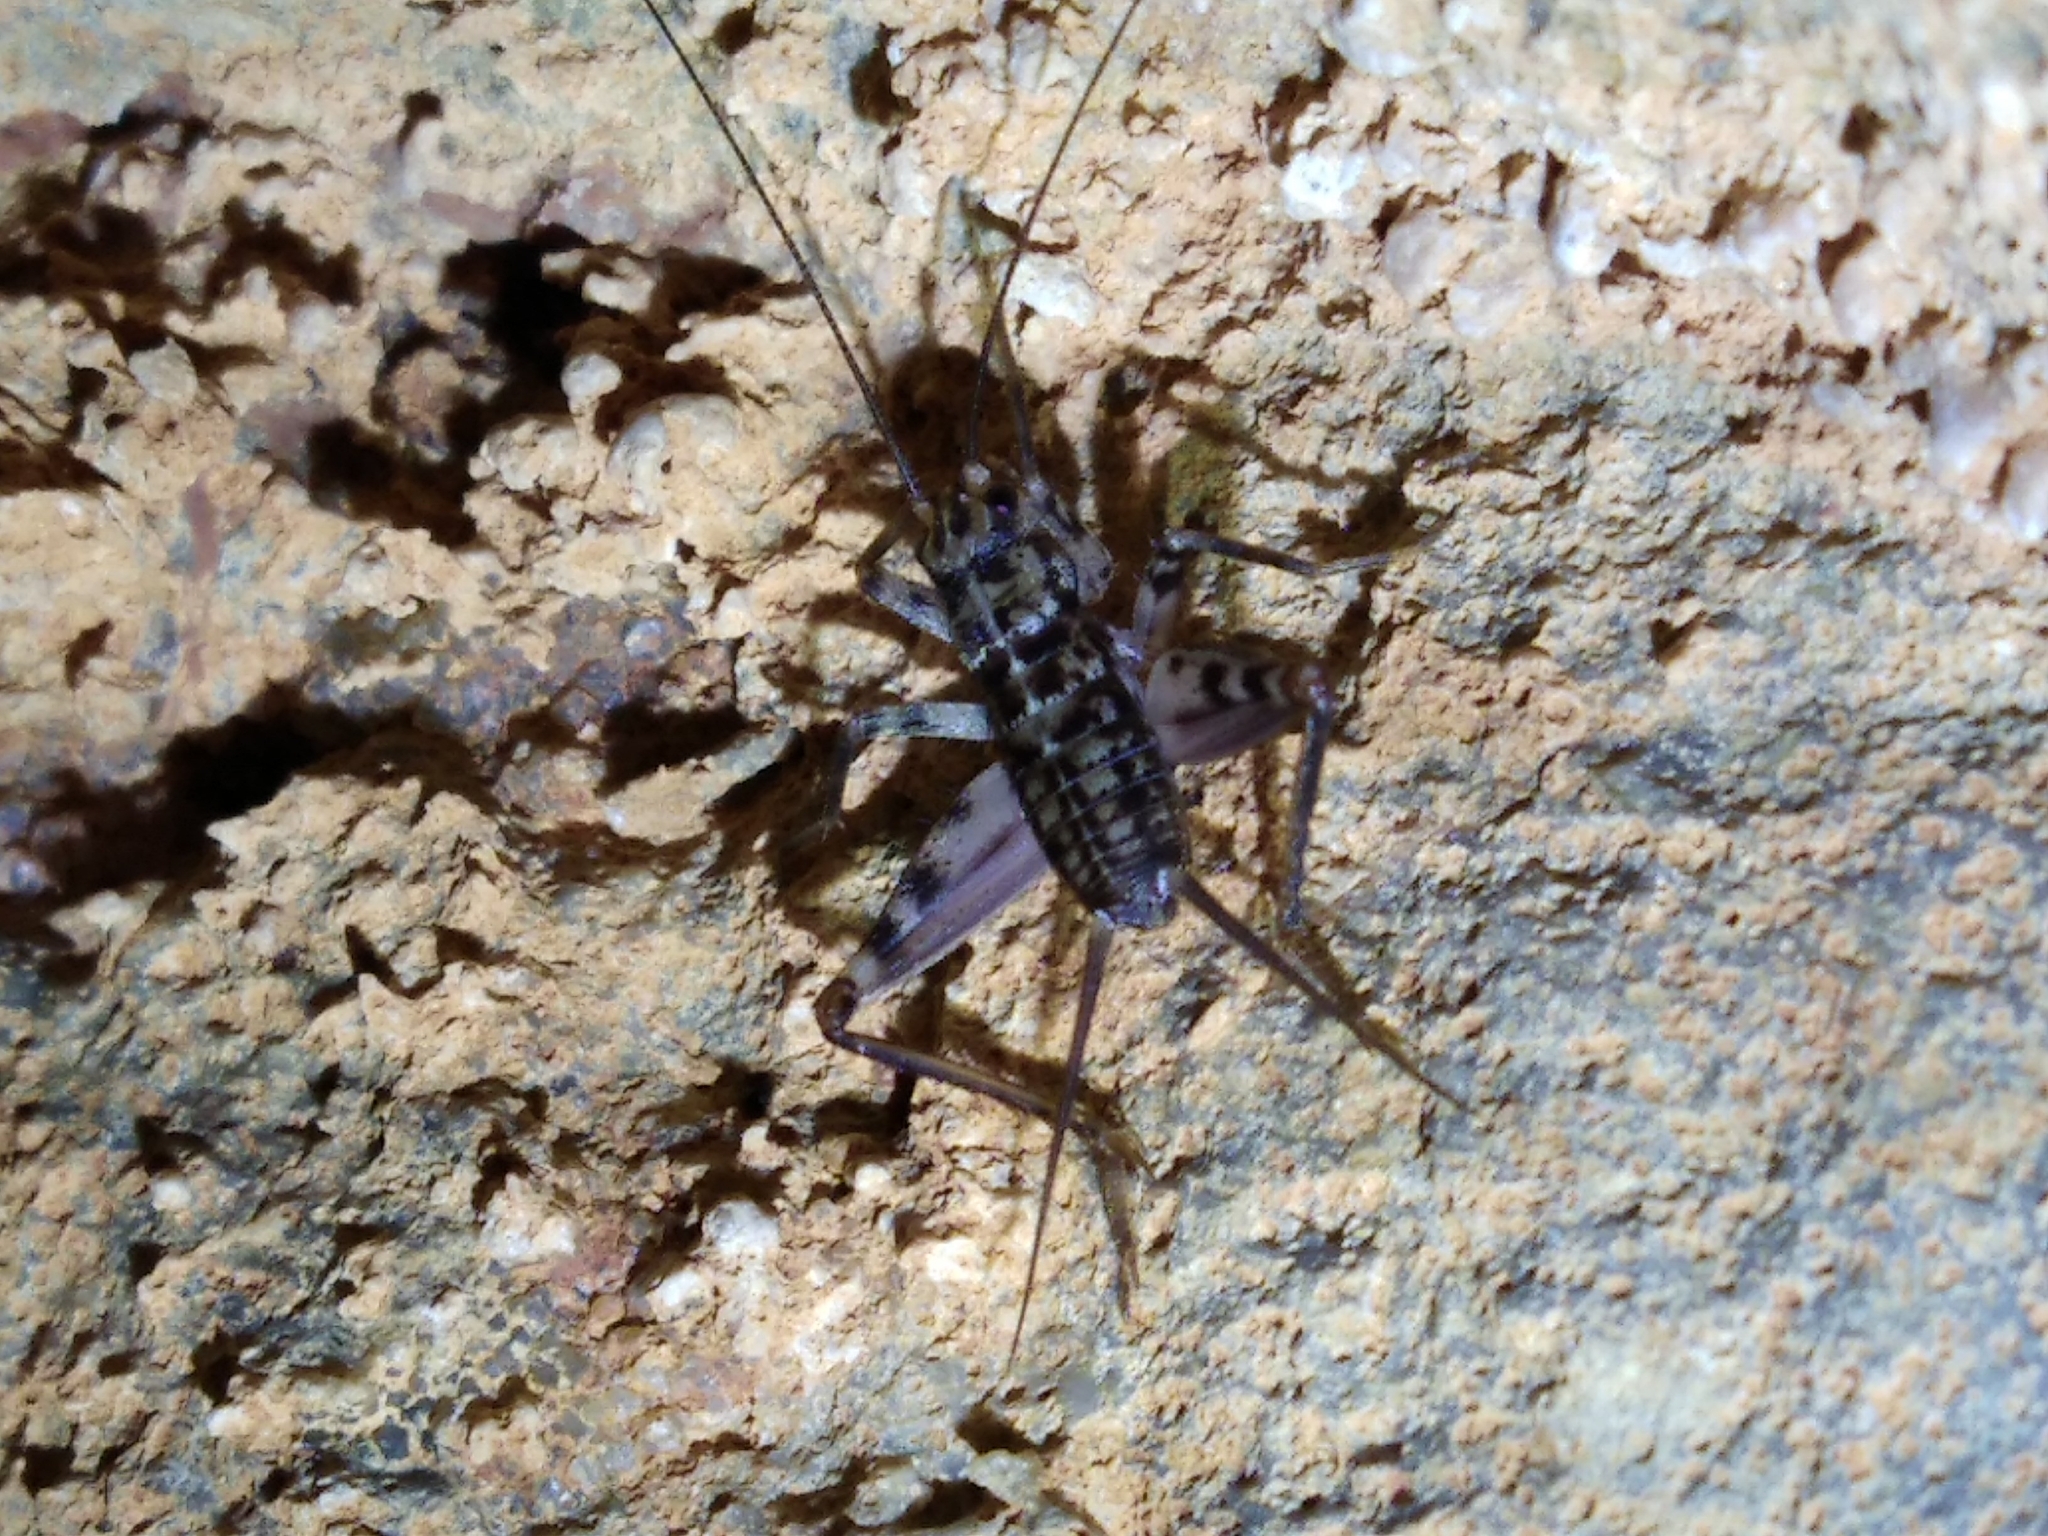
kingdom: Animalia
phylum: Arthropoda
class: Insecta
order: Orthoptera
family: Gryllidae
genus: Gryllomorpha
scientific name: Gryllomorpha dalmatina
